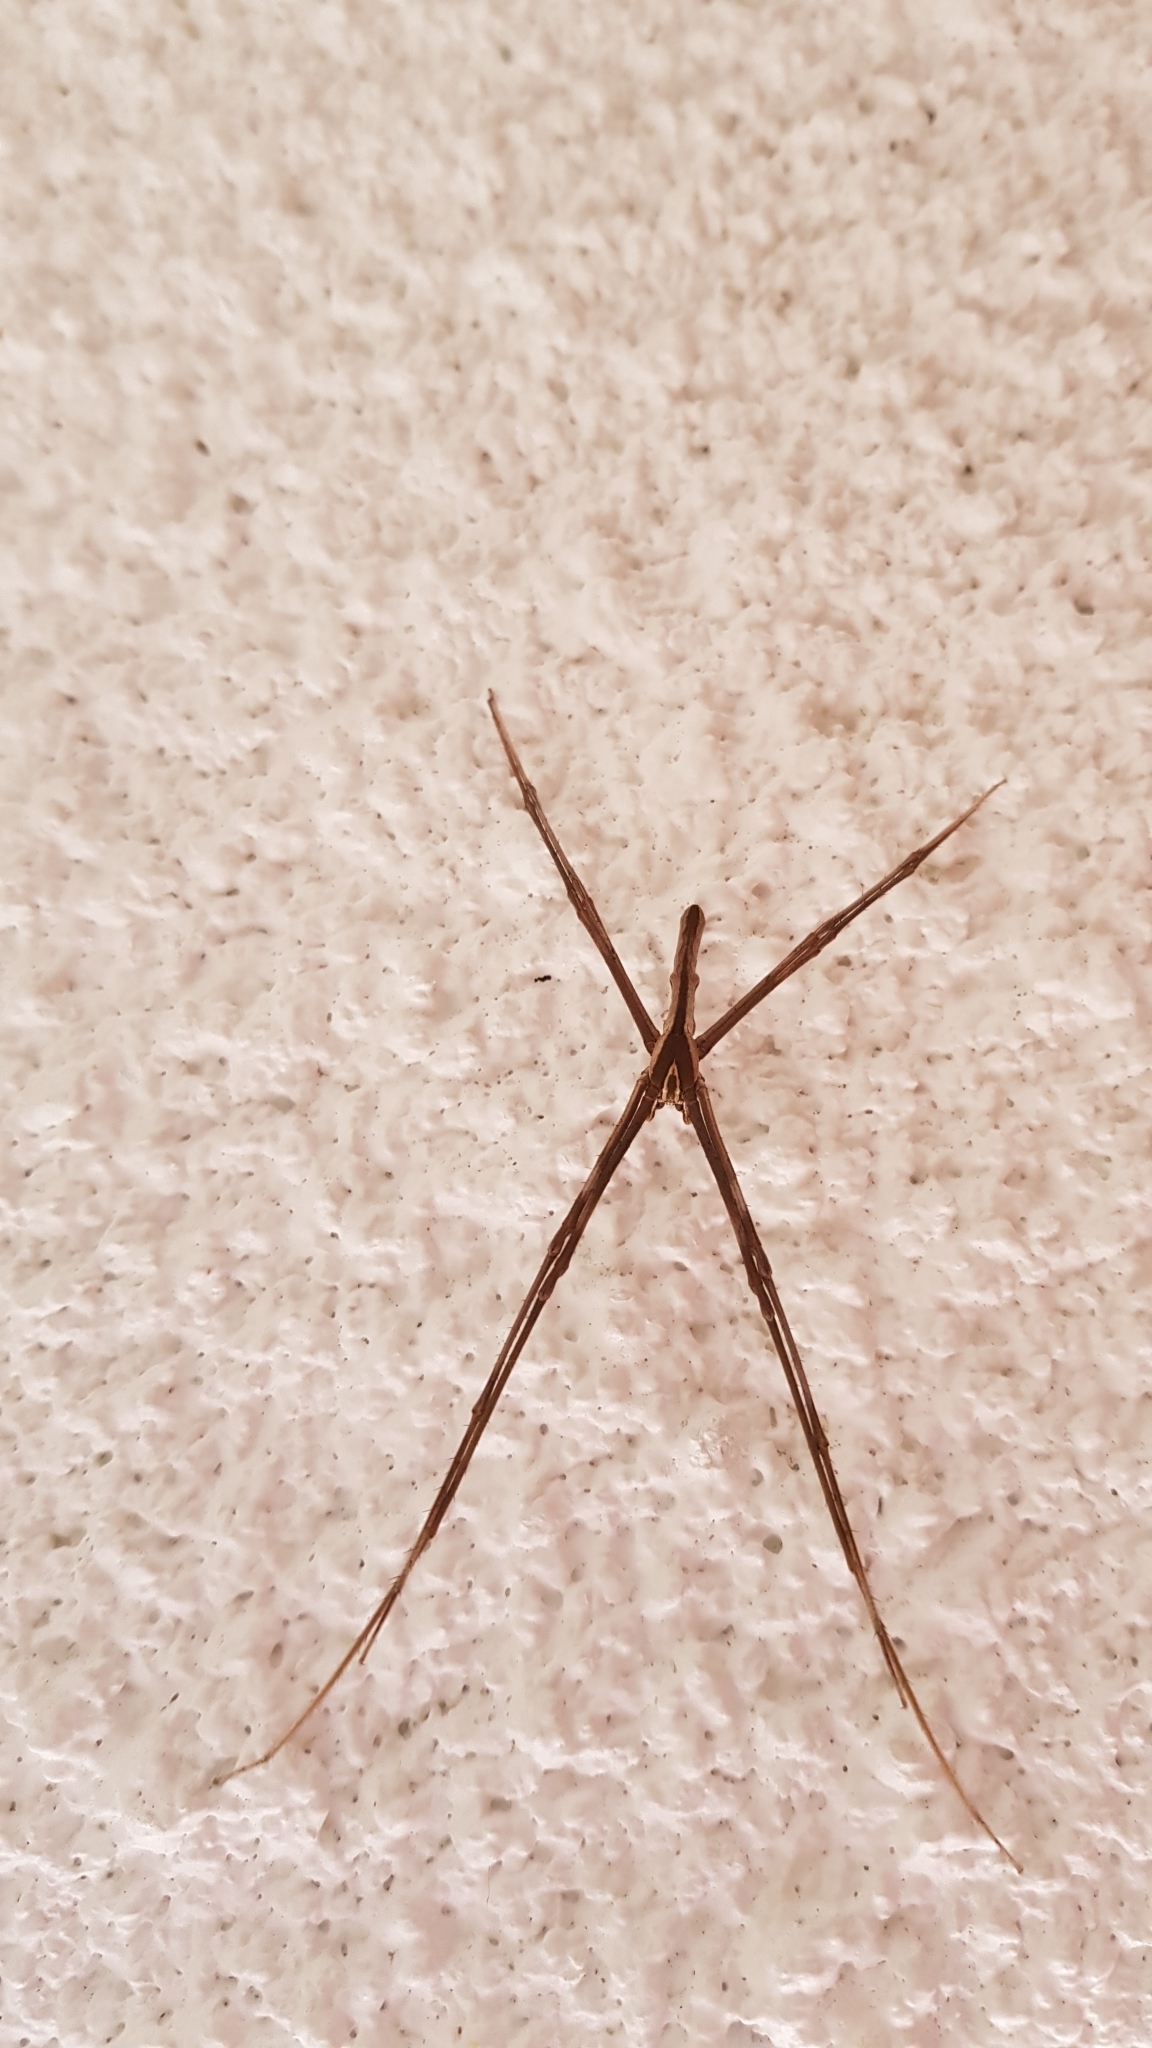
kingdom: Animalia
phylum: Arthropoda
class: Arachnida
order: Araneae
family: Deinopidae
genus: Deinopis
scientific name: Deinopis subrufa
